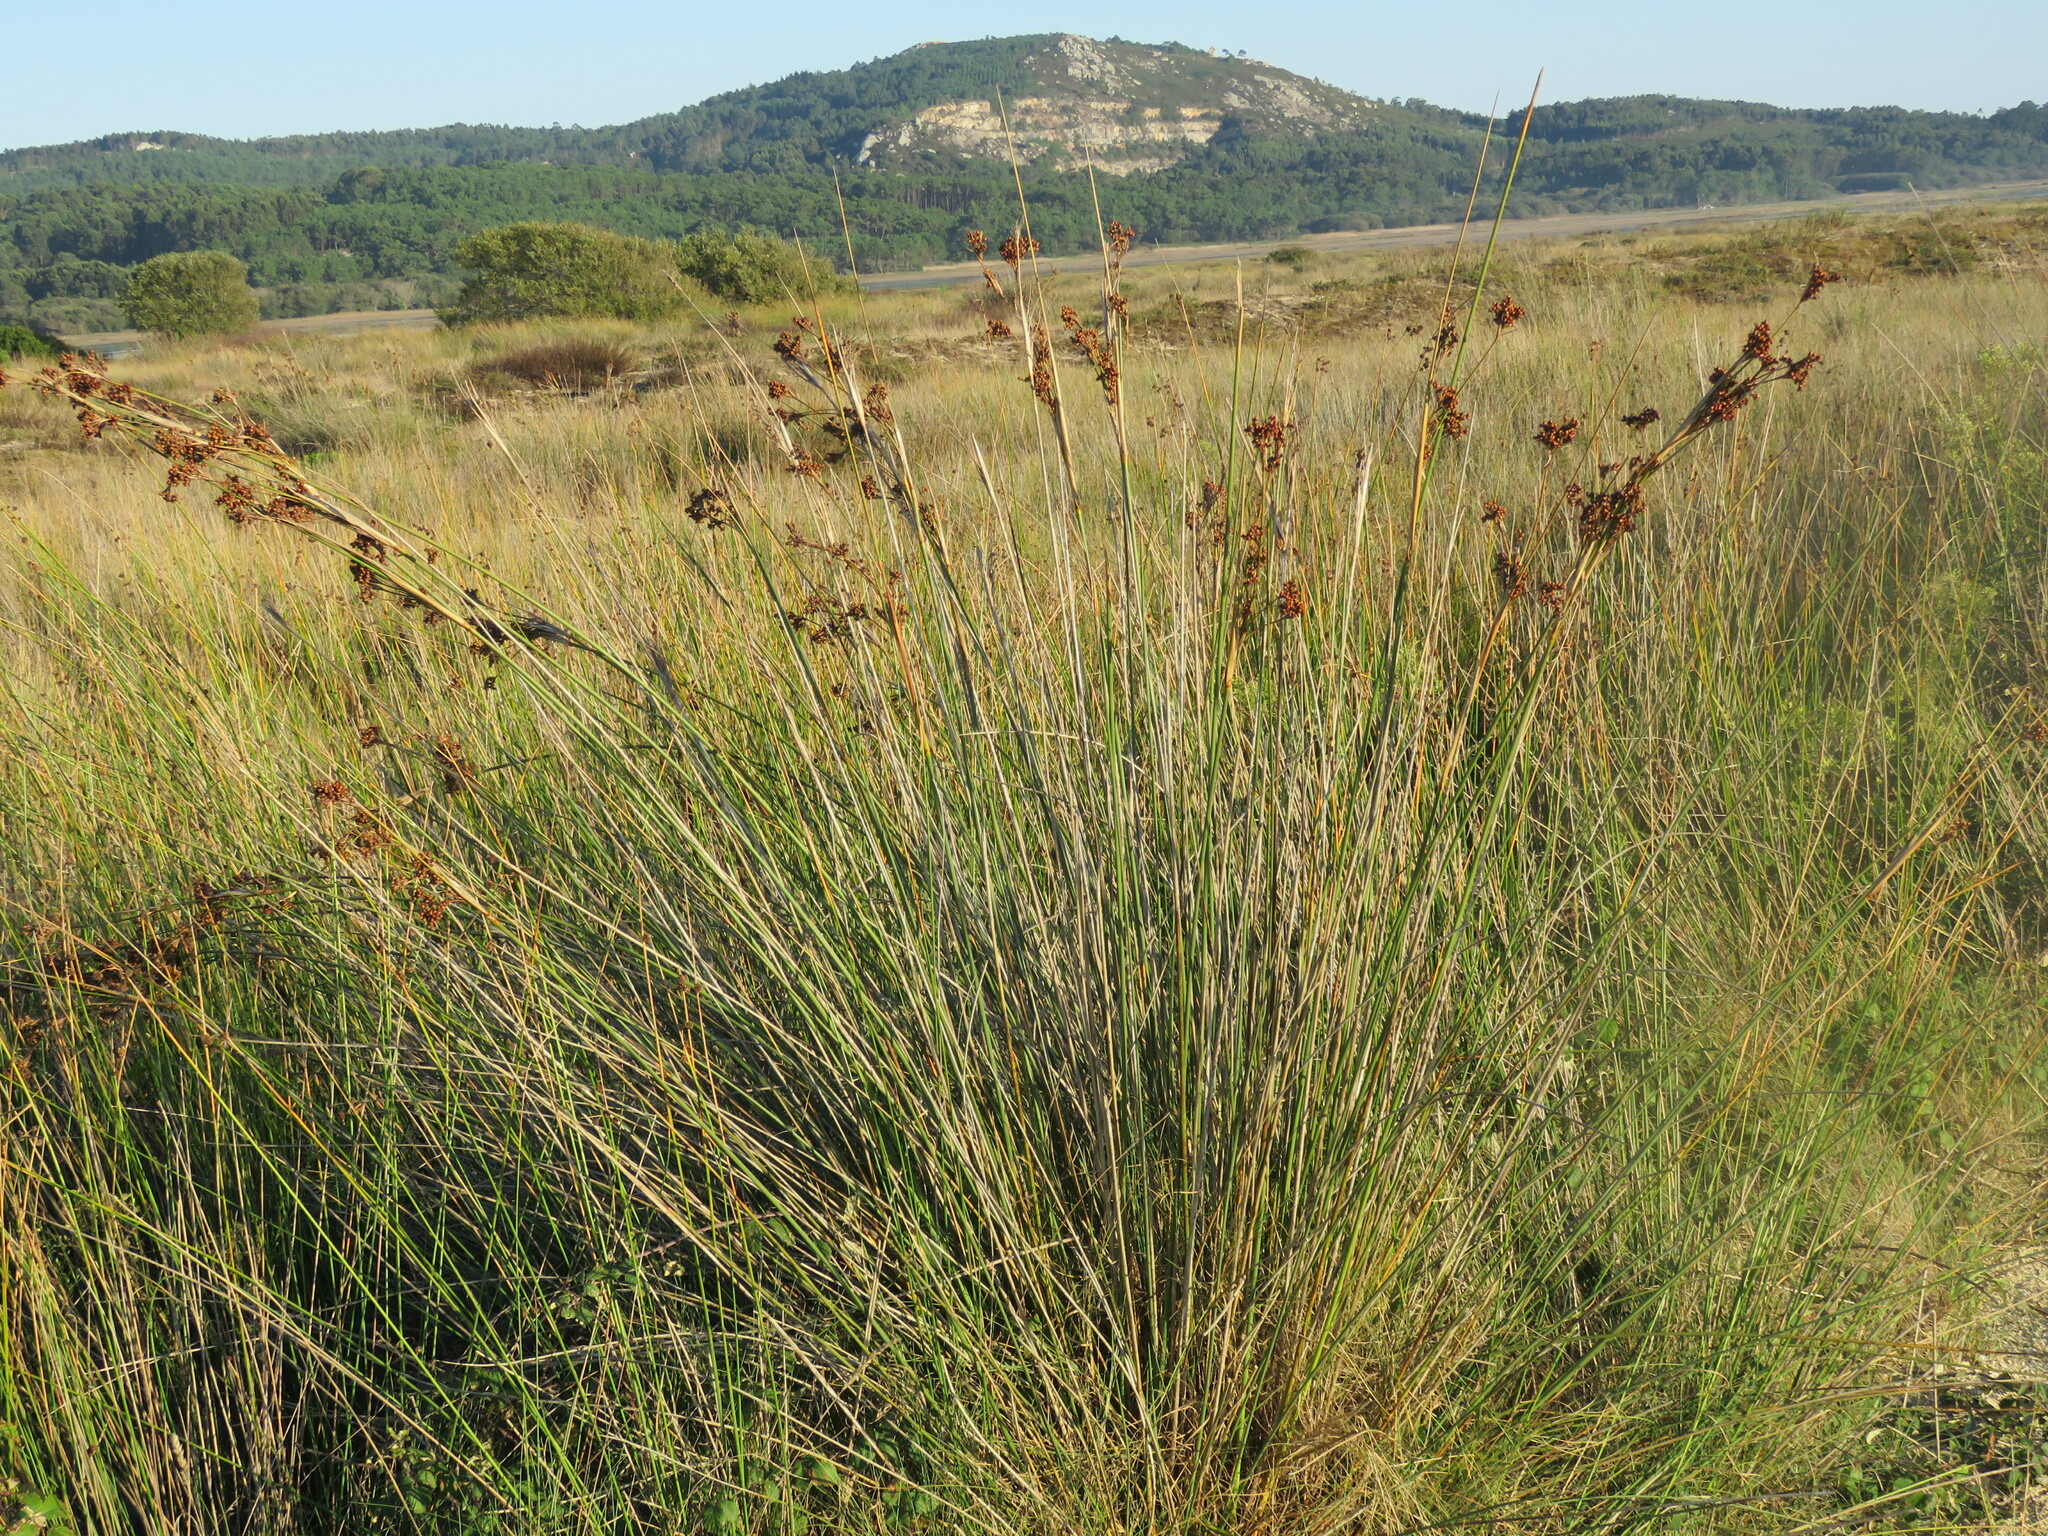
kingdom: Plantae
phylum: Tracheophyta
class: Liliopsida
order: Poales
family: Juncaceae
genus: Juncus
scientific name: Juncus acutus
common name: Sharp rush
